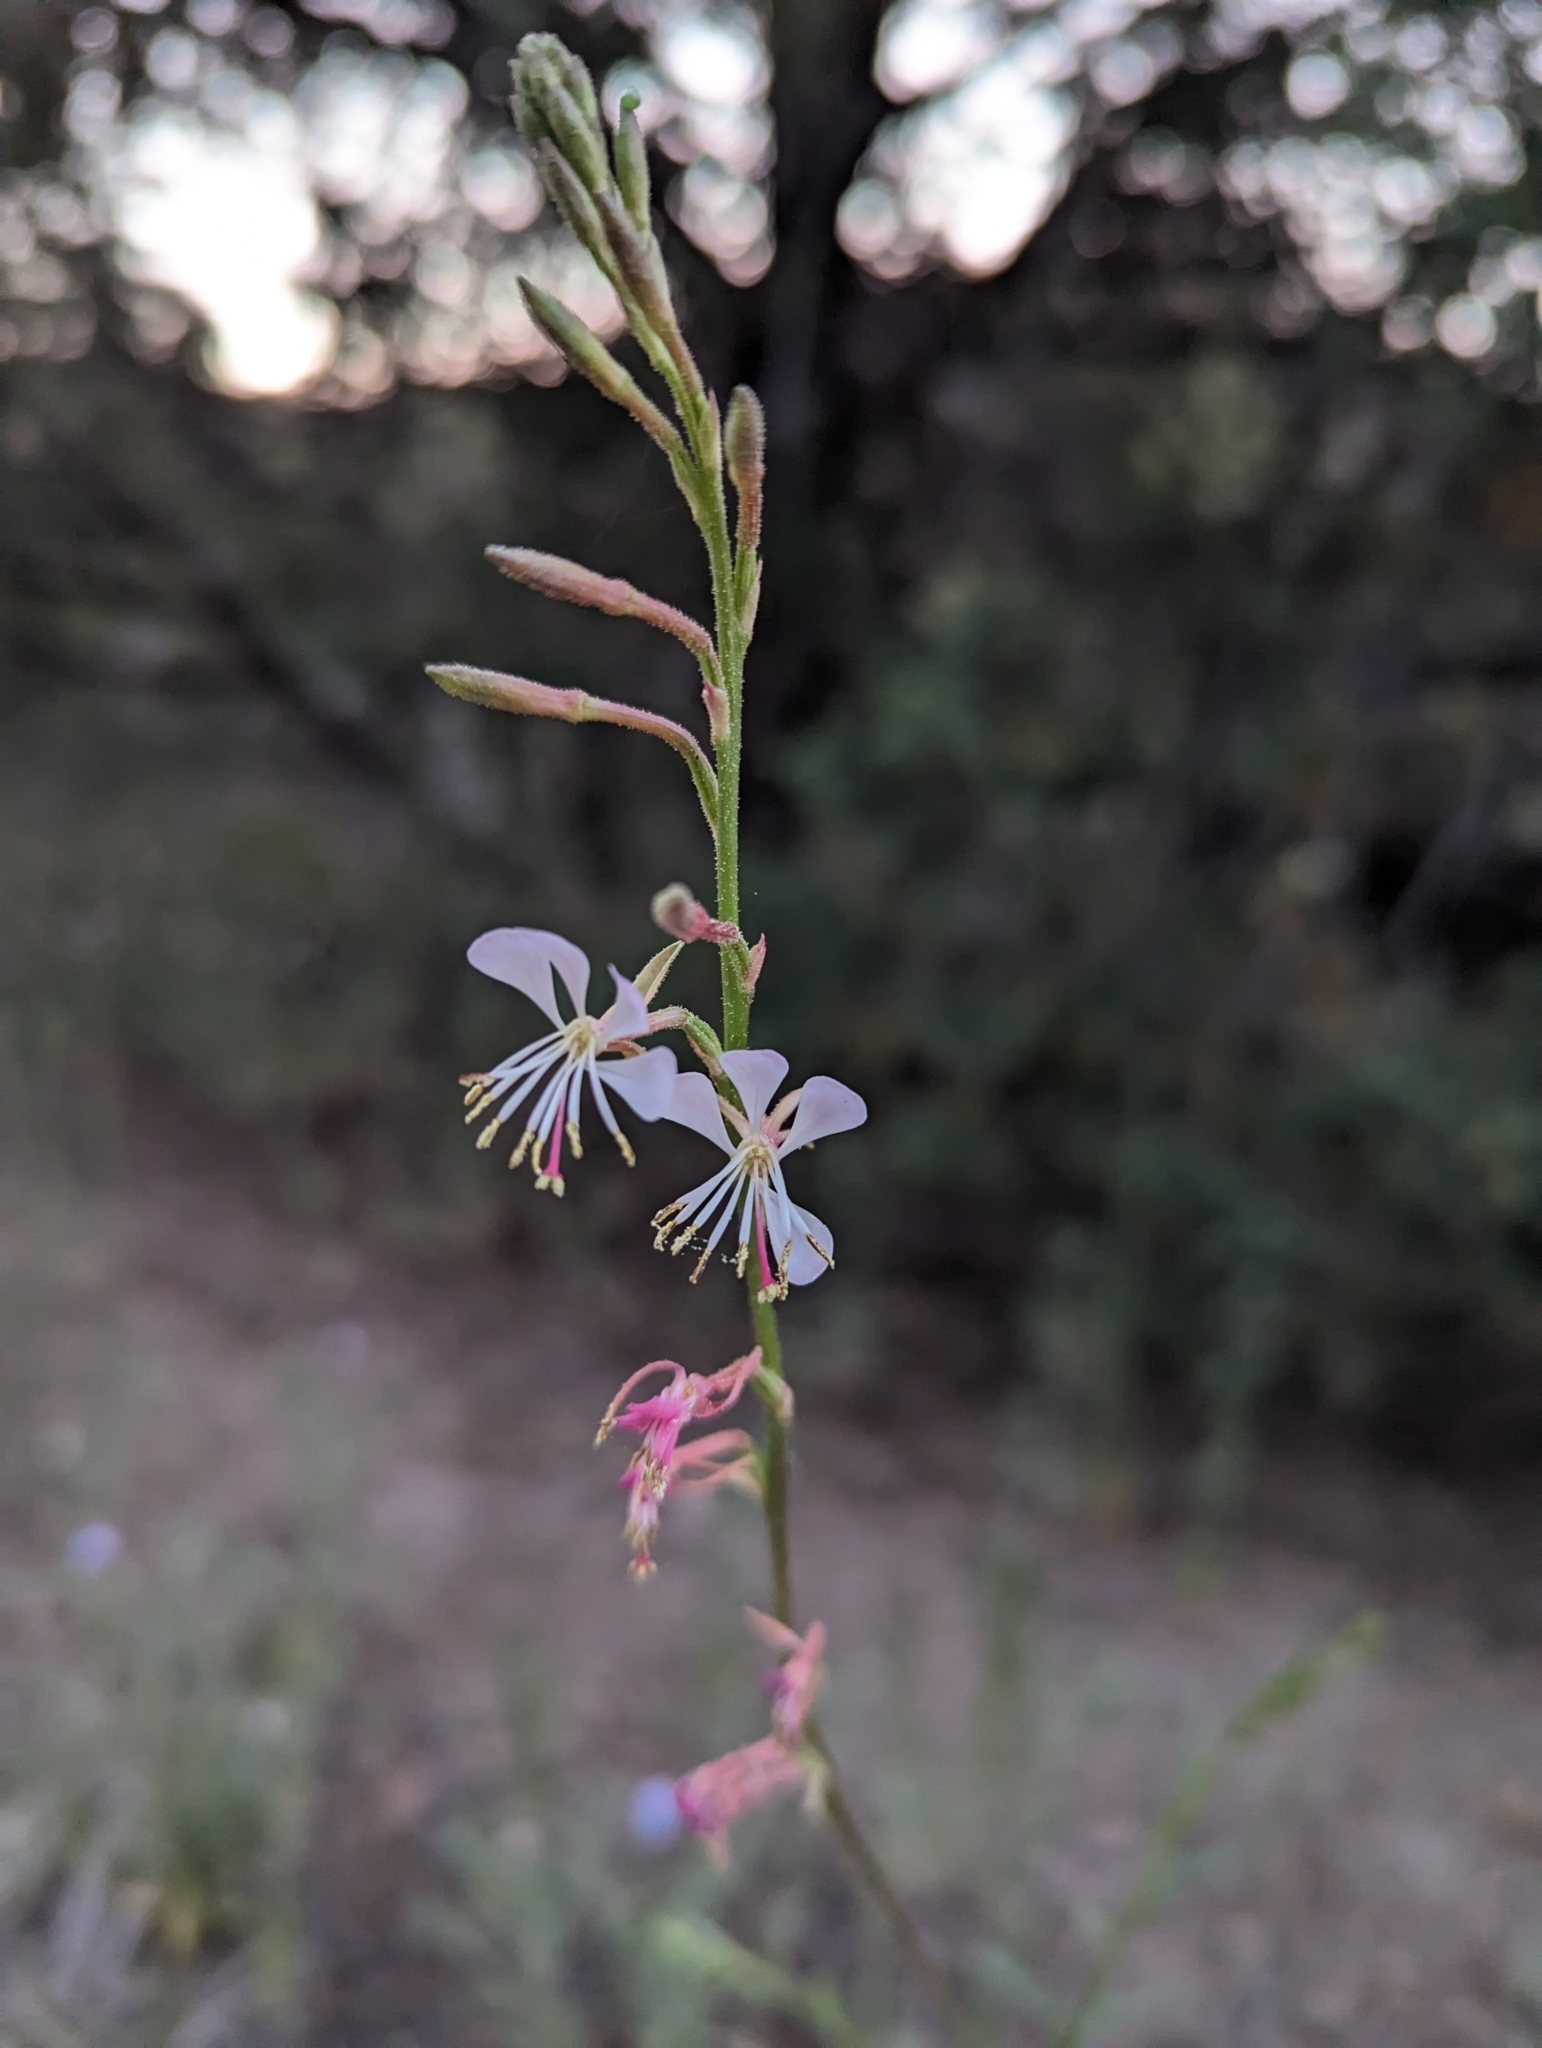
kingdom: Plantae
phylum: Tracheophyta
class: Magnoliopsida
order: Myrtales
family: Onagraceae
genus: Oenothera
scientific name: Oenothera podocarpa
